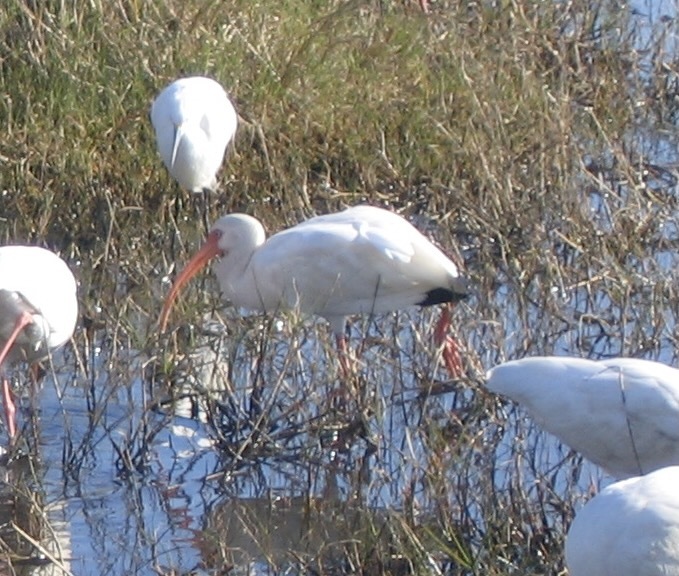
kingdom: Animalia
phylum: Chordata
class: Aves
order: Pelecaniformes
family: Threskiornithidae
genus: Eudocimus
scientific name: Eudocimus albus
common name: White ibis
